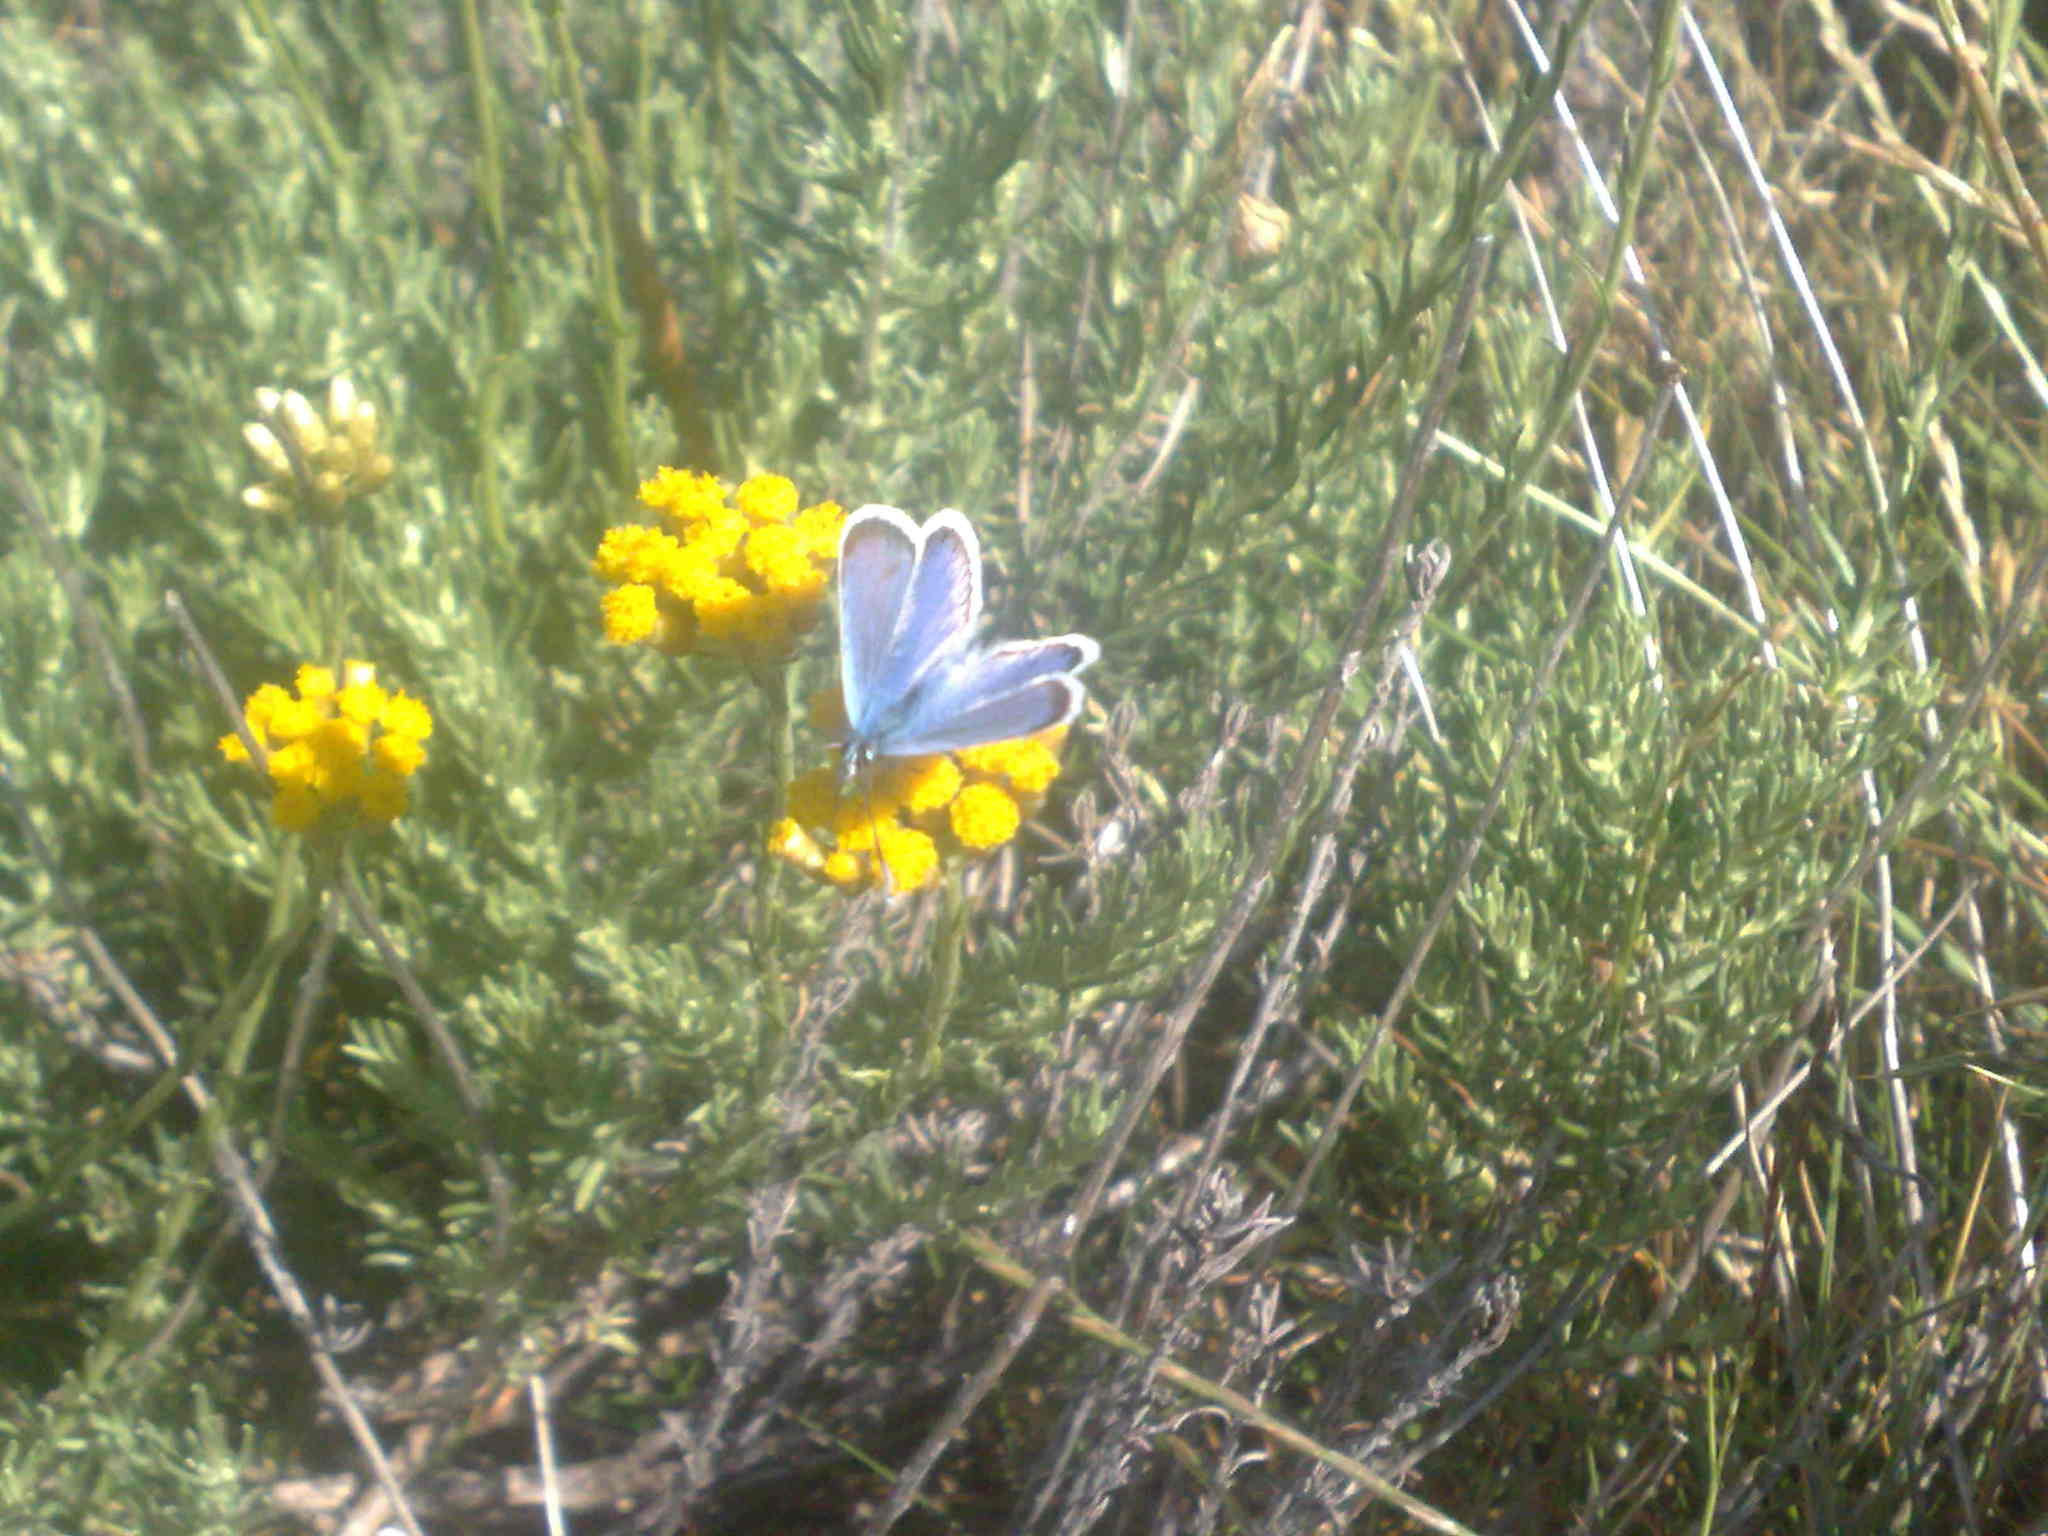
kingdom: Animalia
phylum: Arthropoda
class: Insecta
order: Lepidoptera
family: Lycaenidae
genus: Plebejus
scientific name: Plebejus argus
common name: Silver-studded blue
